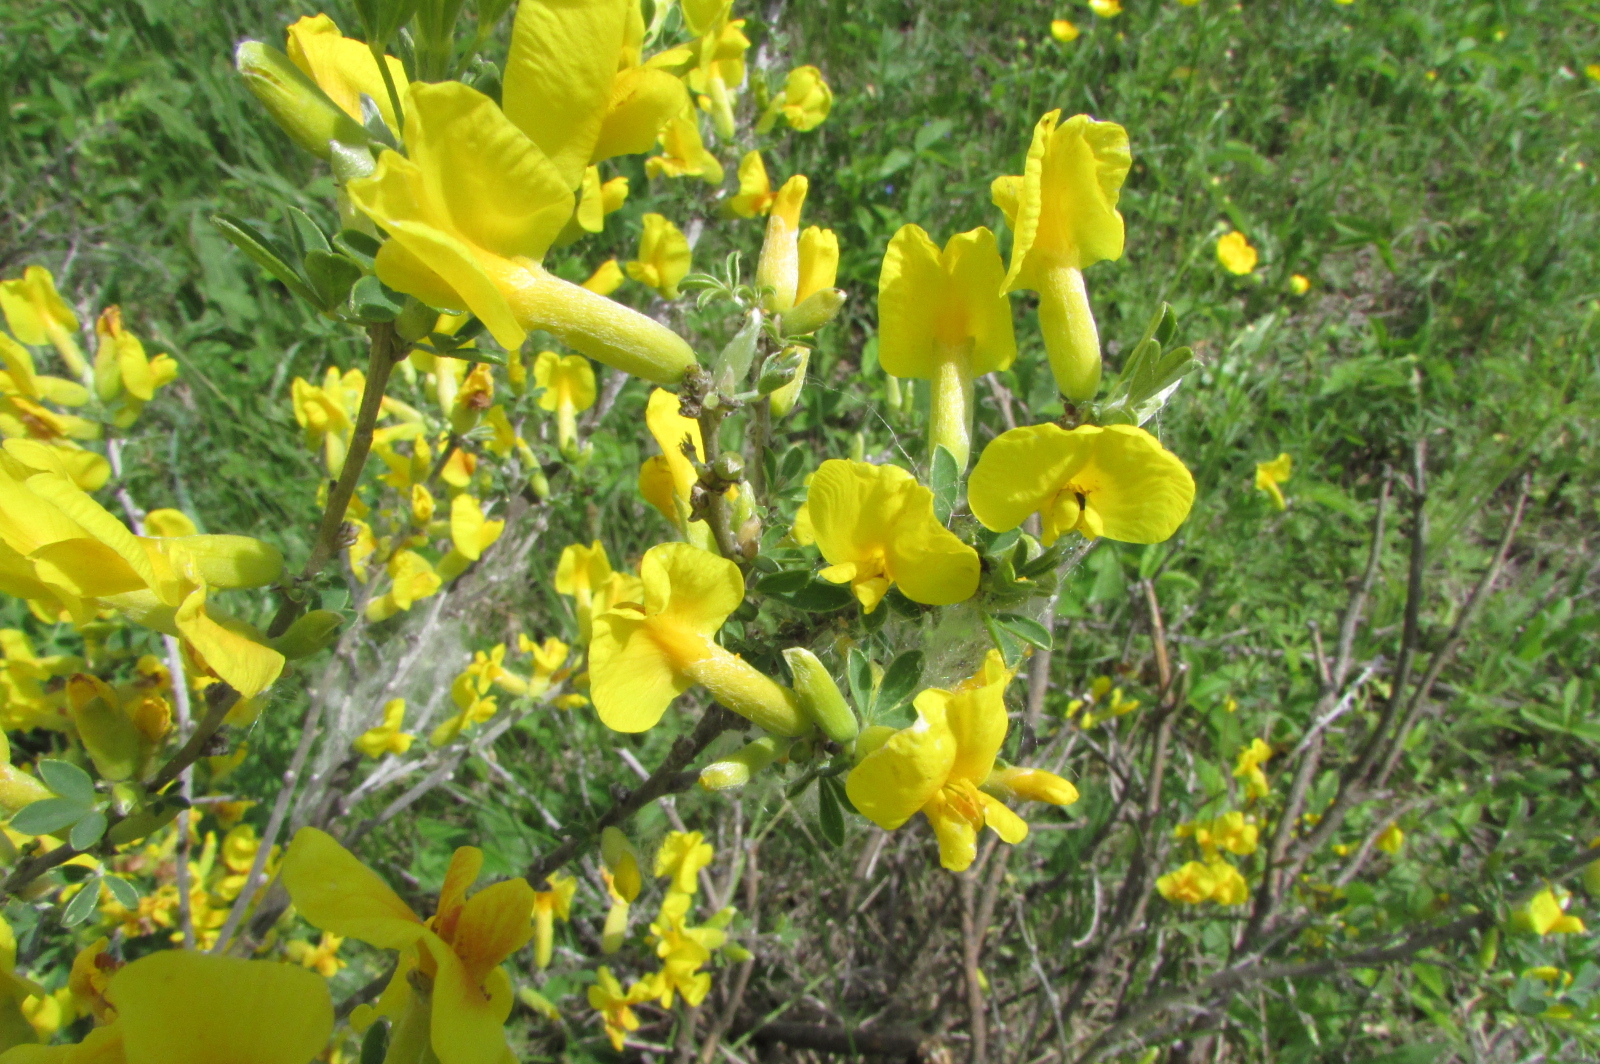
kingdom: Plantae
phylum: Tracheophyta
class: Magnoliopsida
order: Fabales
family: Fabaceae
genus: Chamaecytisus
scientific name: Chamaecytisus ruthenicus
